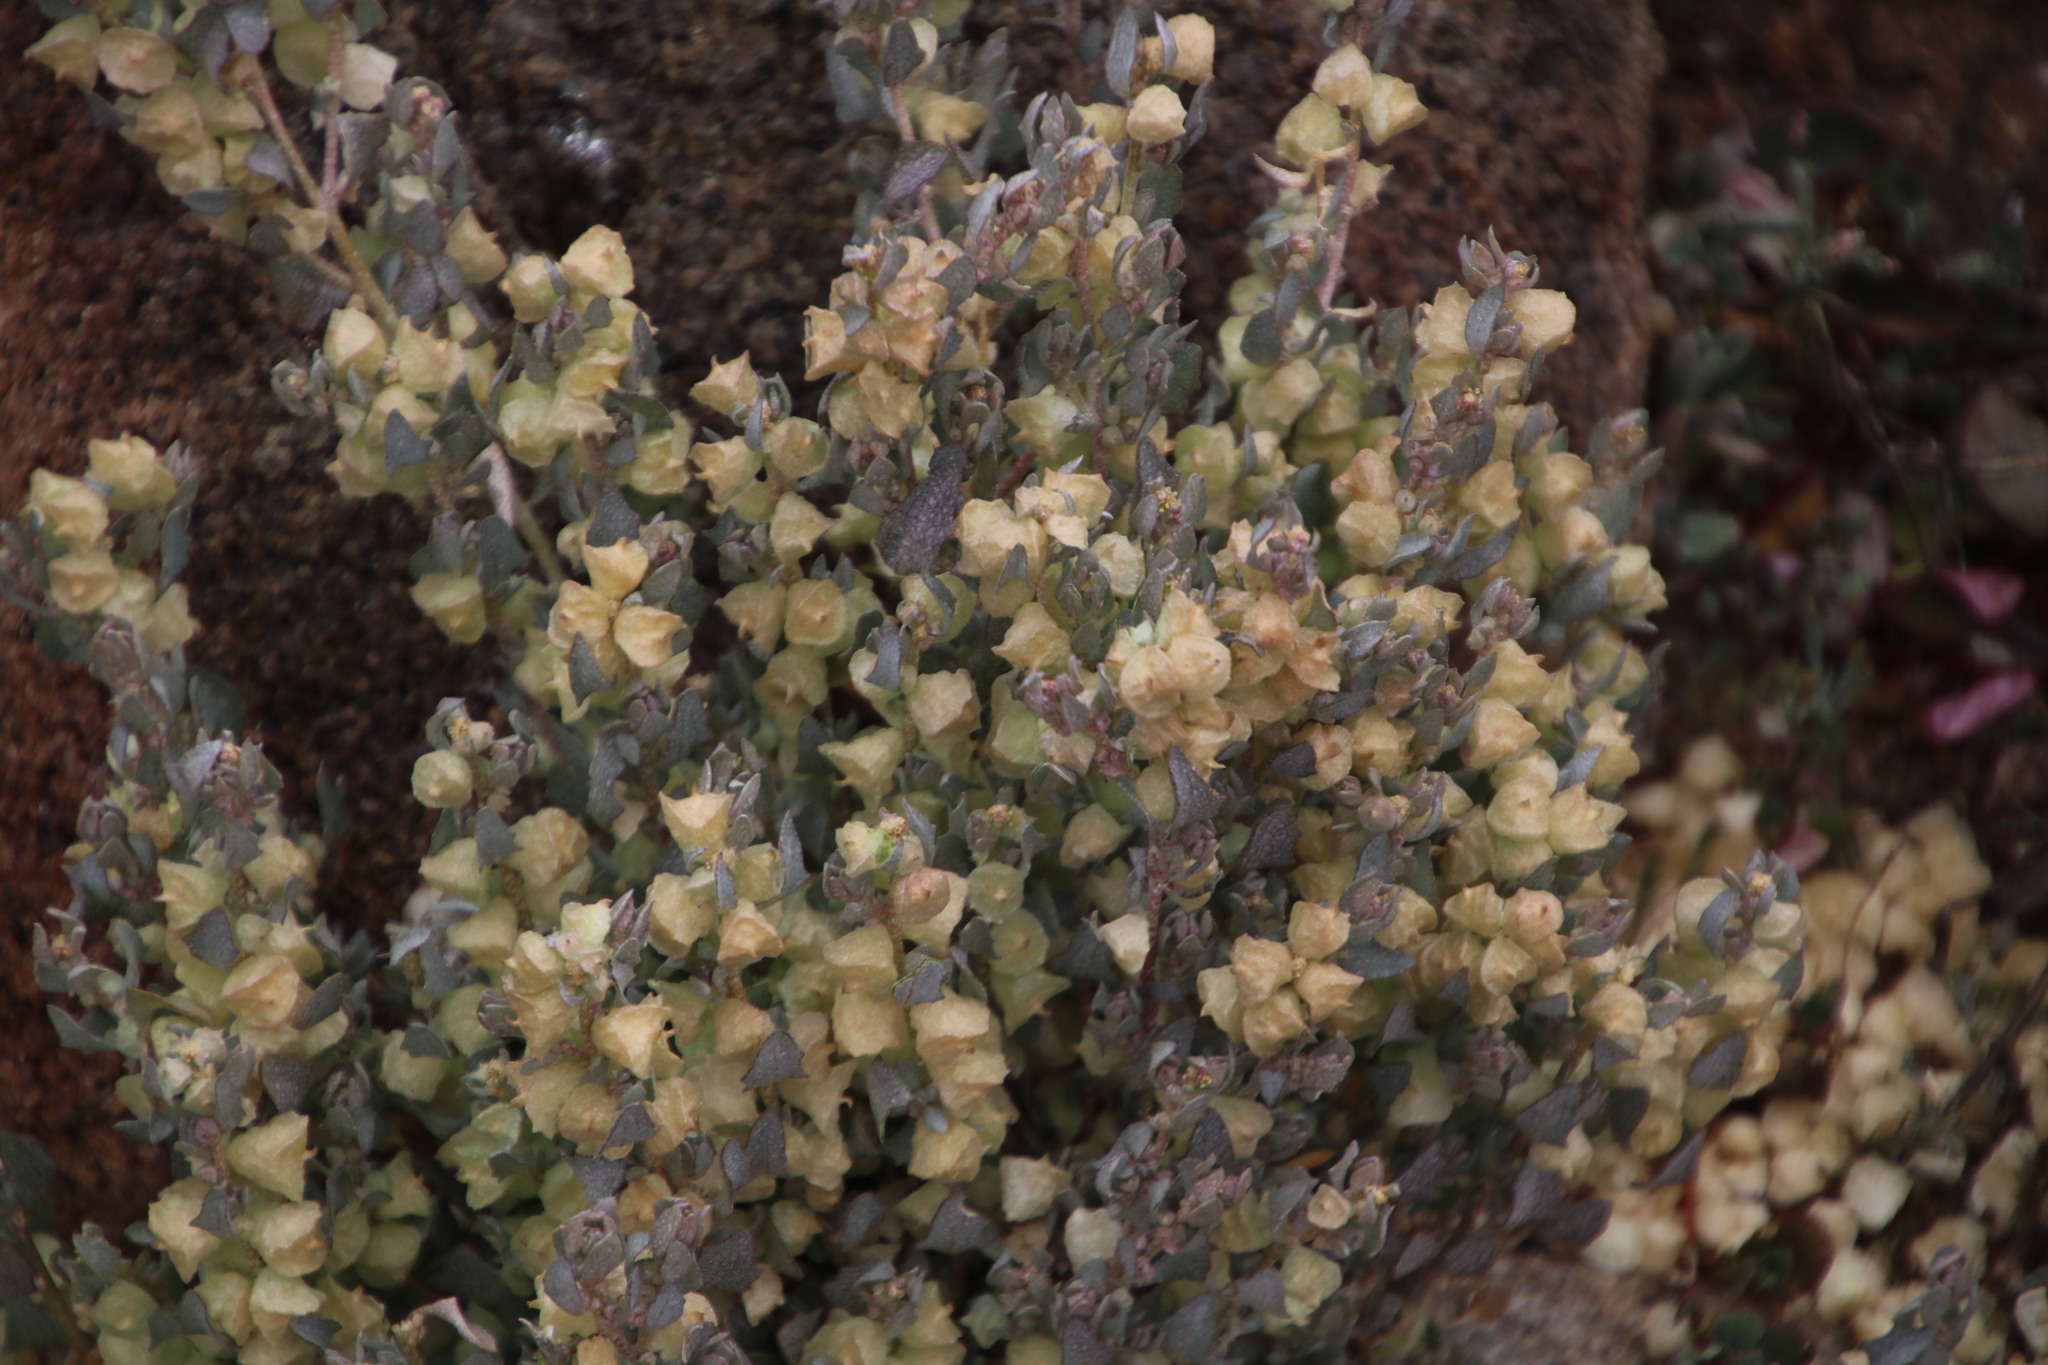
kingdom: Plantae
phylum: Tracheophyta
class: Magnoliopsida
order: Caryophyllales
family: Amaranthaceae
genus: Atriplex
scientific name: Atriplex lindleyi
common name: Lindley's saltbush
